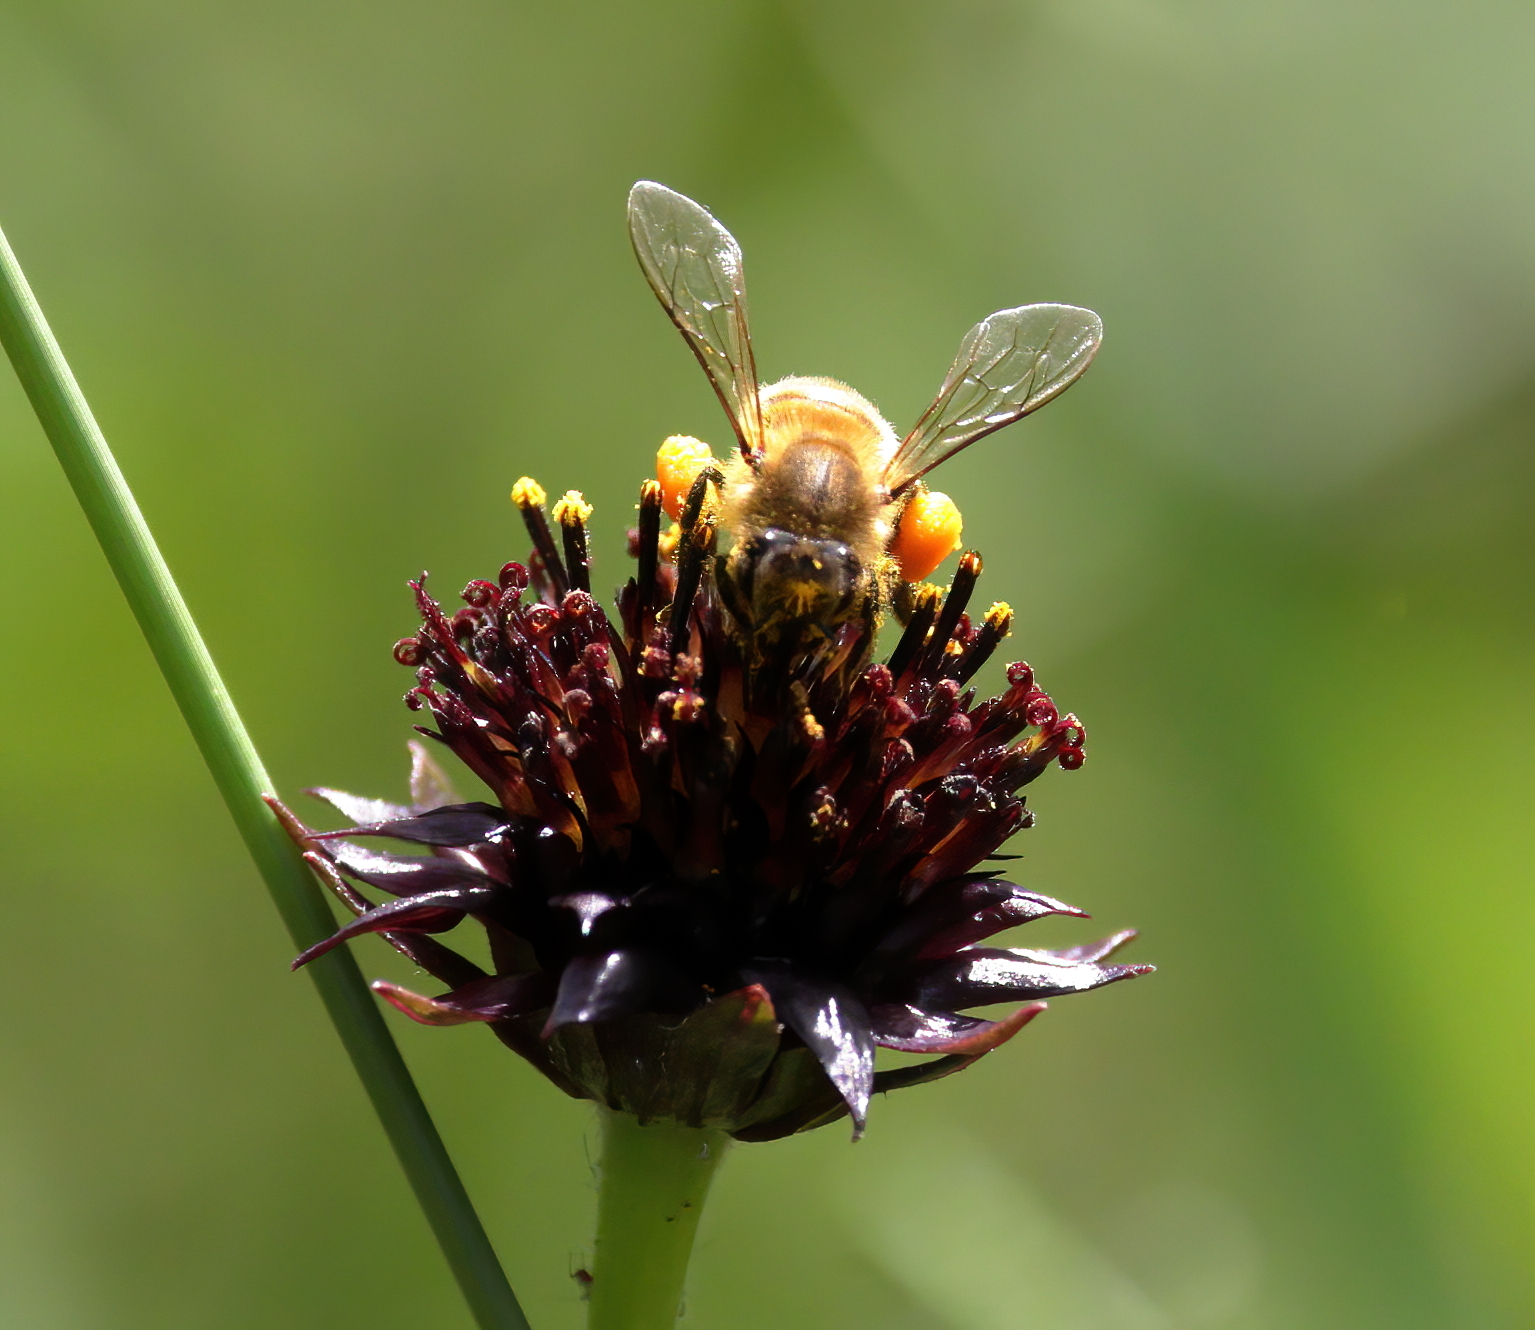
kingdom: Animalia
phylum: Arthropoda
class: Insecta
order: Hymenoptera
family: Apidae
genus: Apis
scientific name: Apis mellifera
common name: Honey bee
